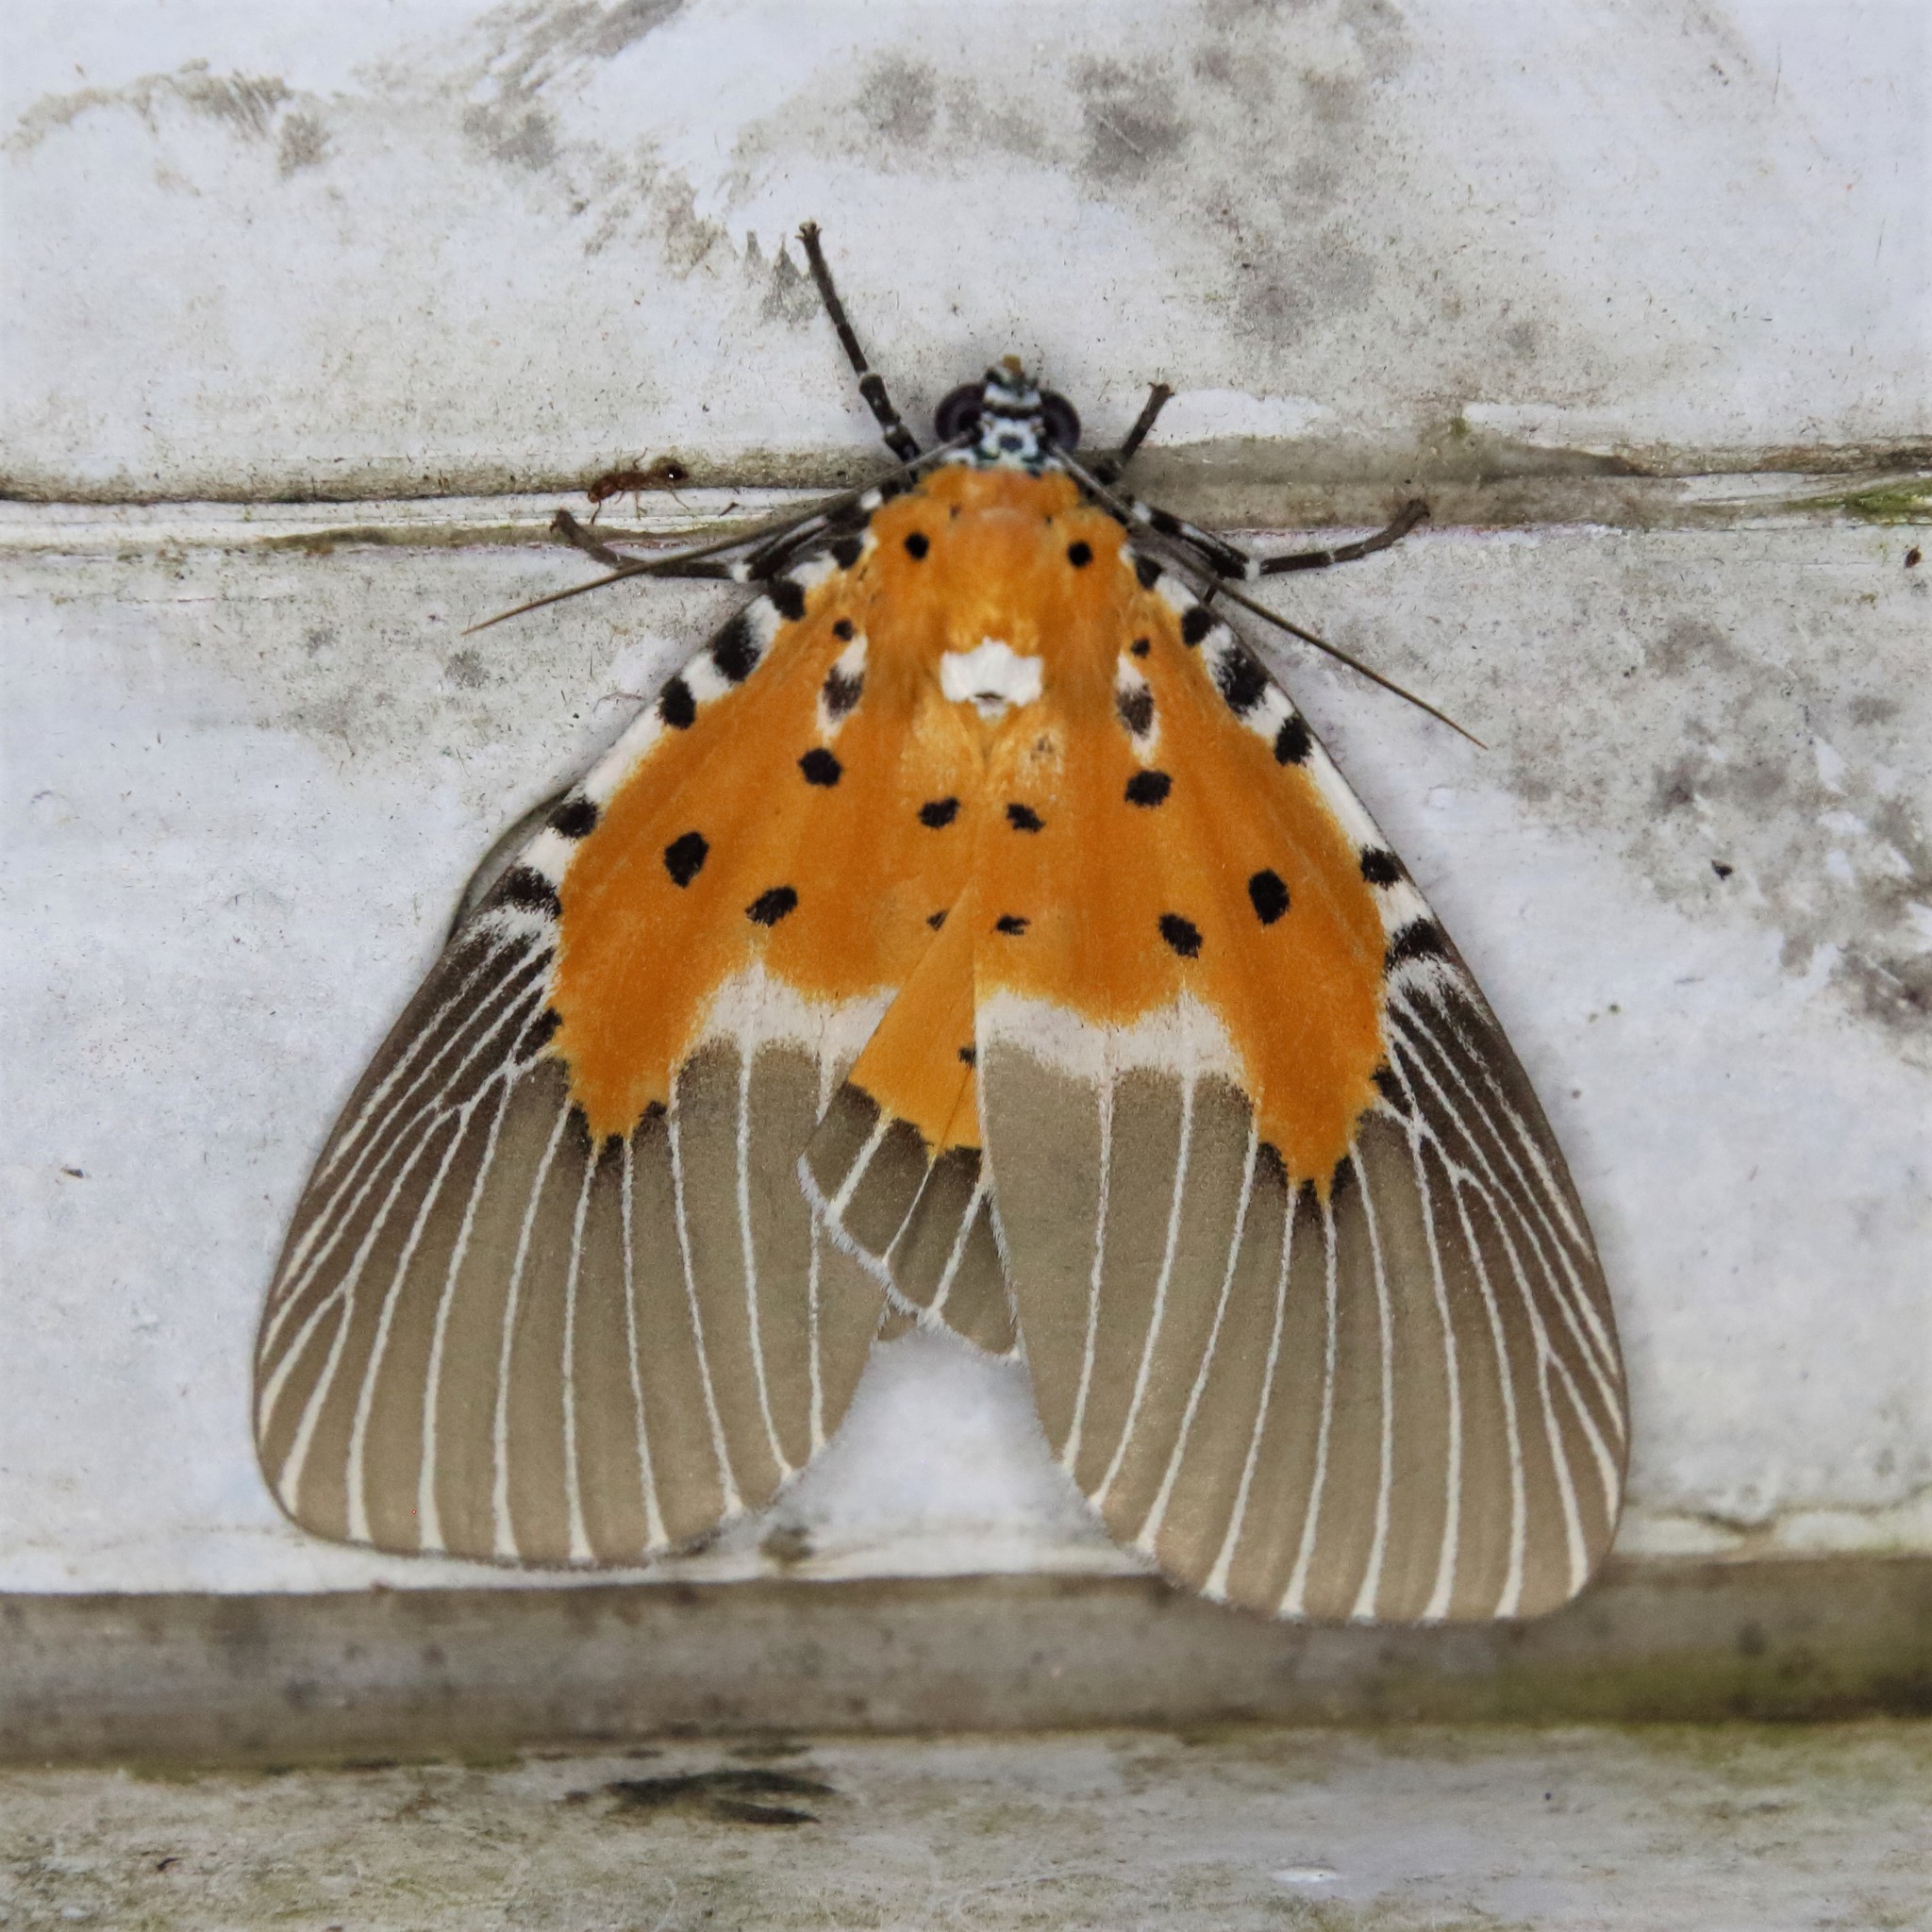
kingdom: Animalia
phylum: Arthropoda
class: Insecta
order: Lepidoptera
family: Erebidae
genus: Peridrome
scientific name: Peridrome subfascia
